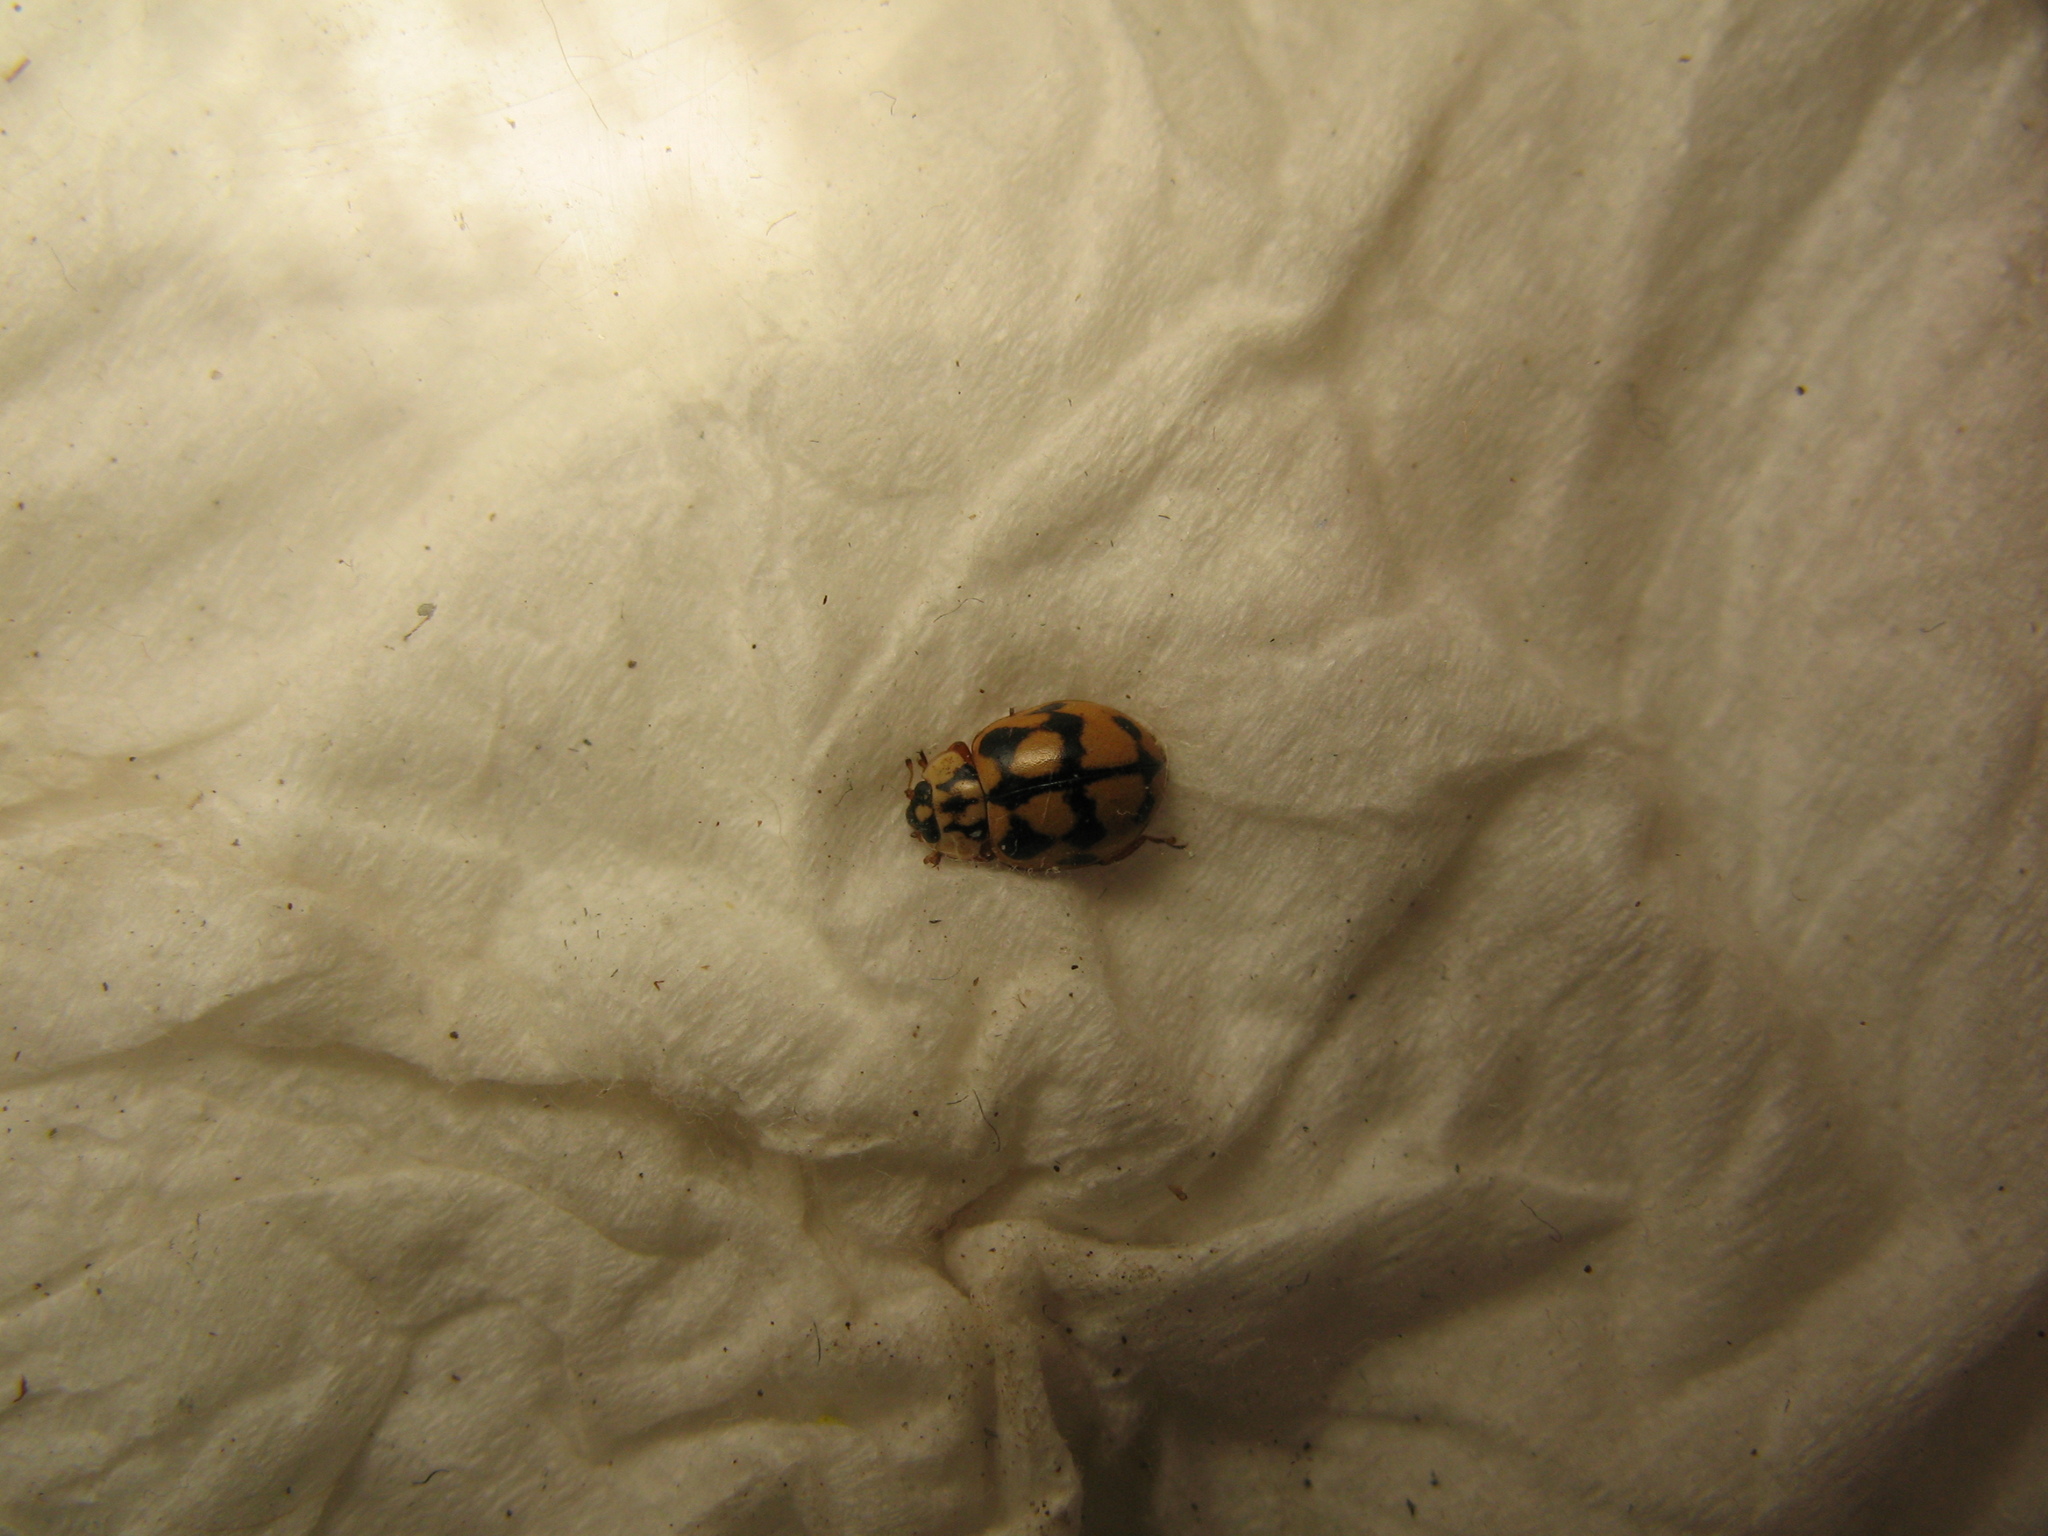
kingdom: Animalia
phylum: Arthropoda
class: Insecta
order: Coleoptera
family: Coccinellidae
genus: Adalia
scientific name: Adalia conglomerata
